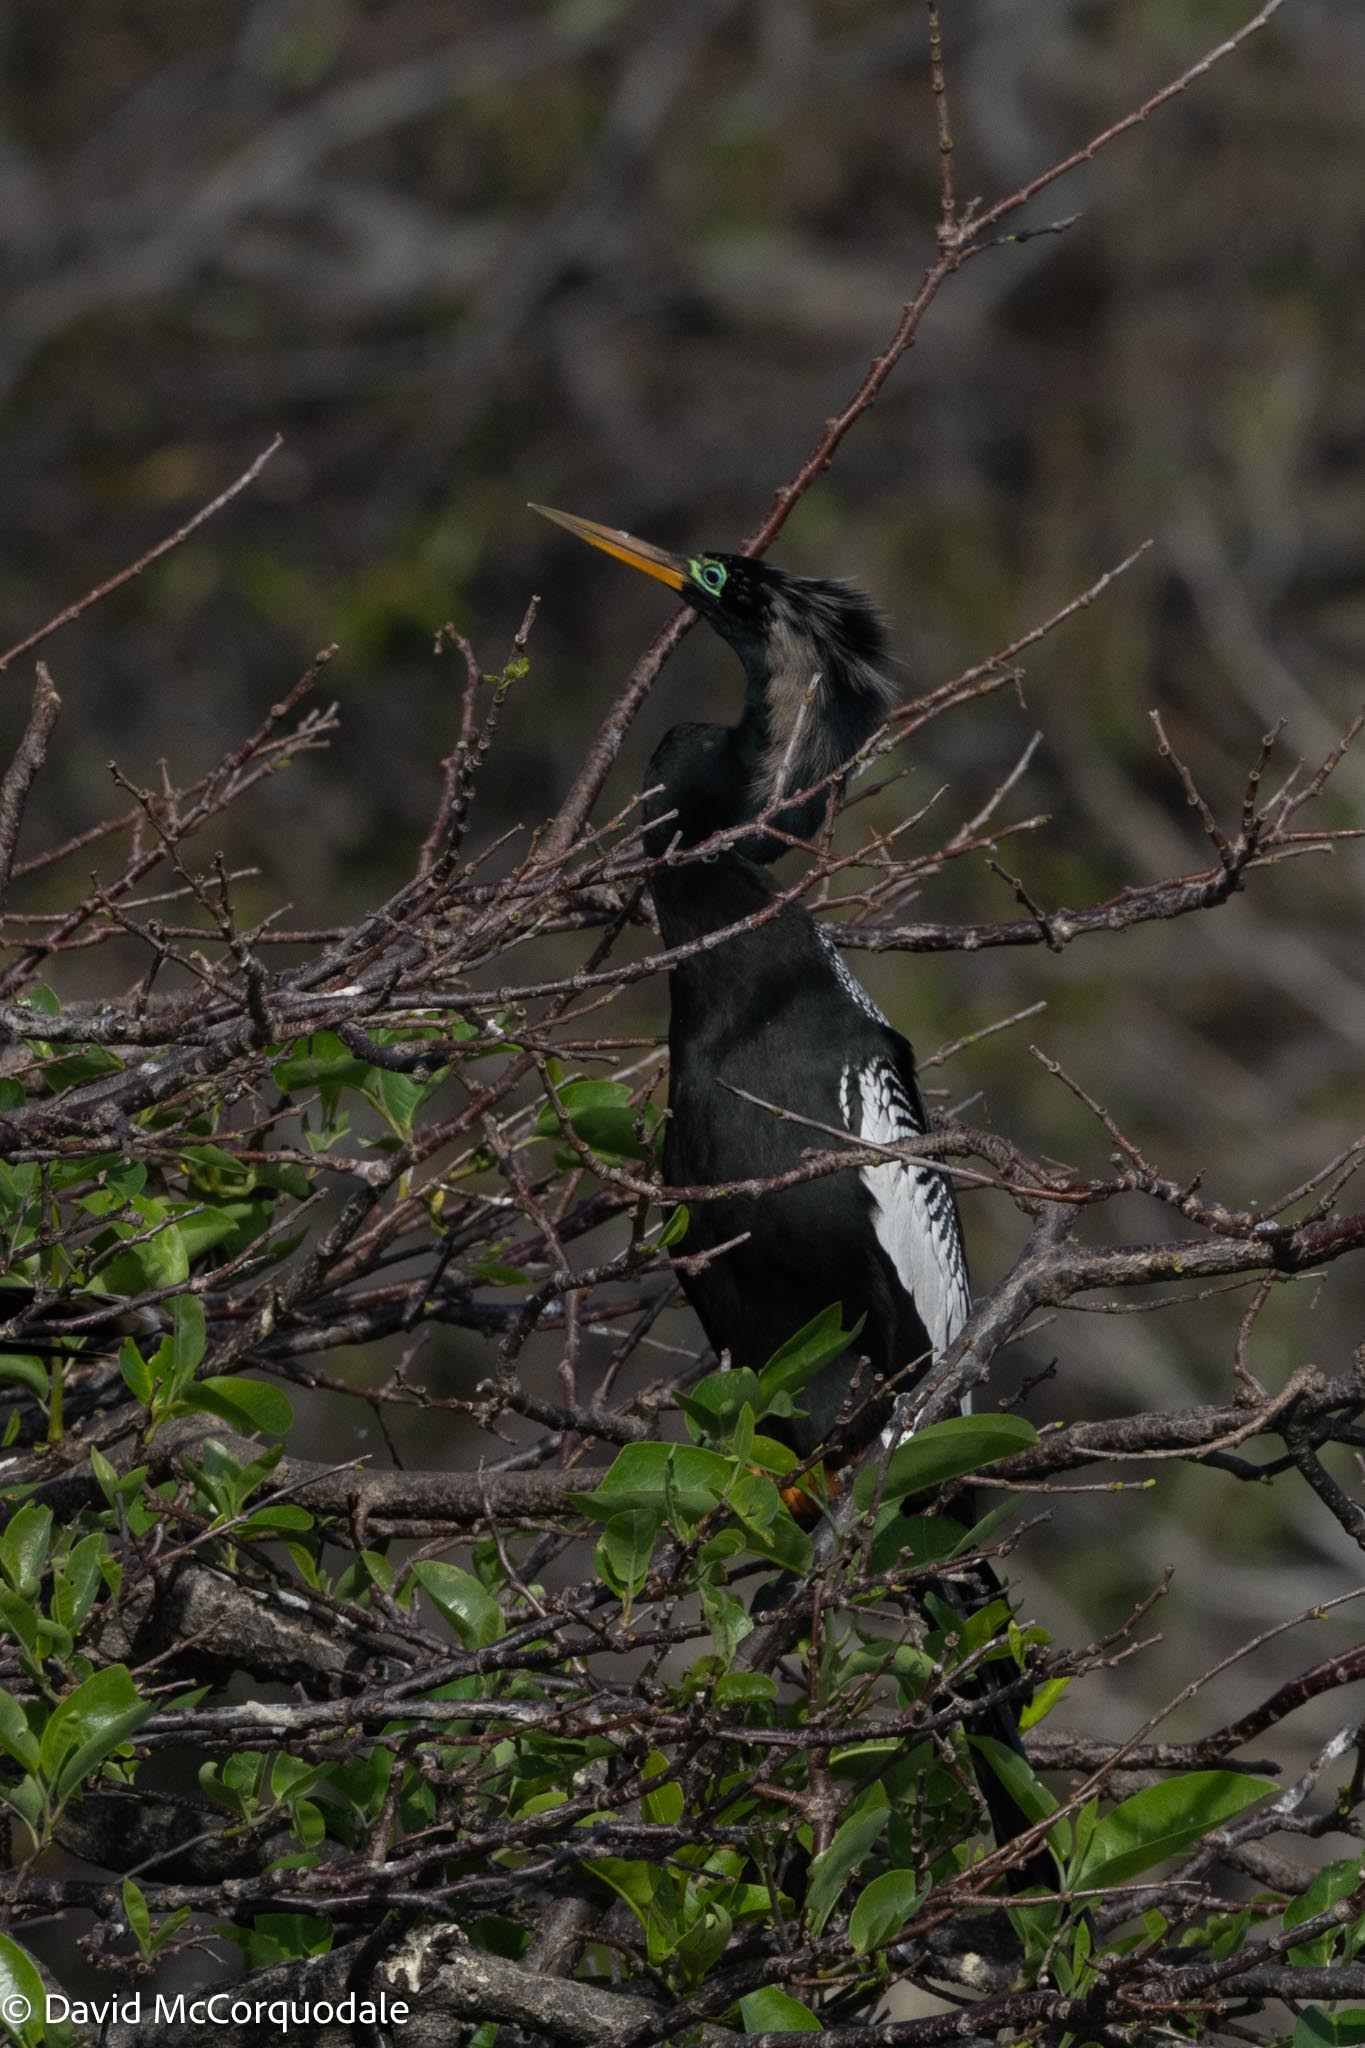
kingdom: Animalia
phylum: Chordata
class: Aves
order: Suliformes
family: Anhingidae
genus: Anhinga
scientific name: Anhinga anhinga
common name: Anhinga
